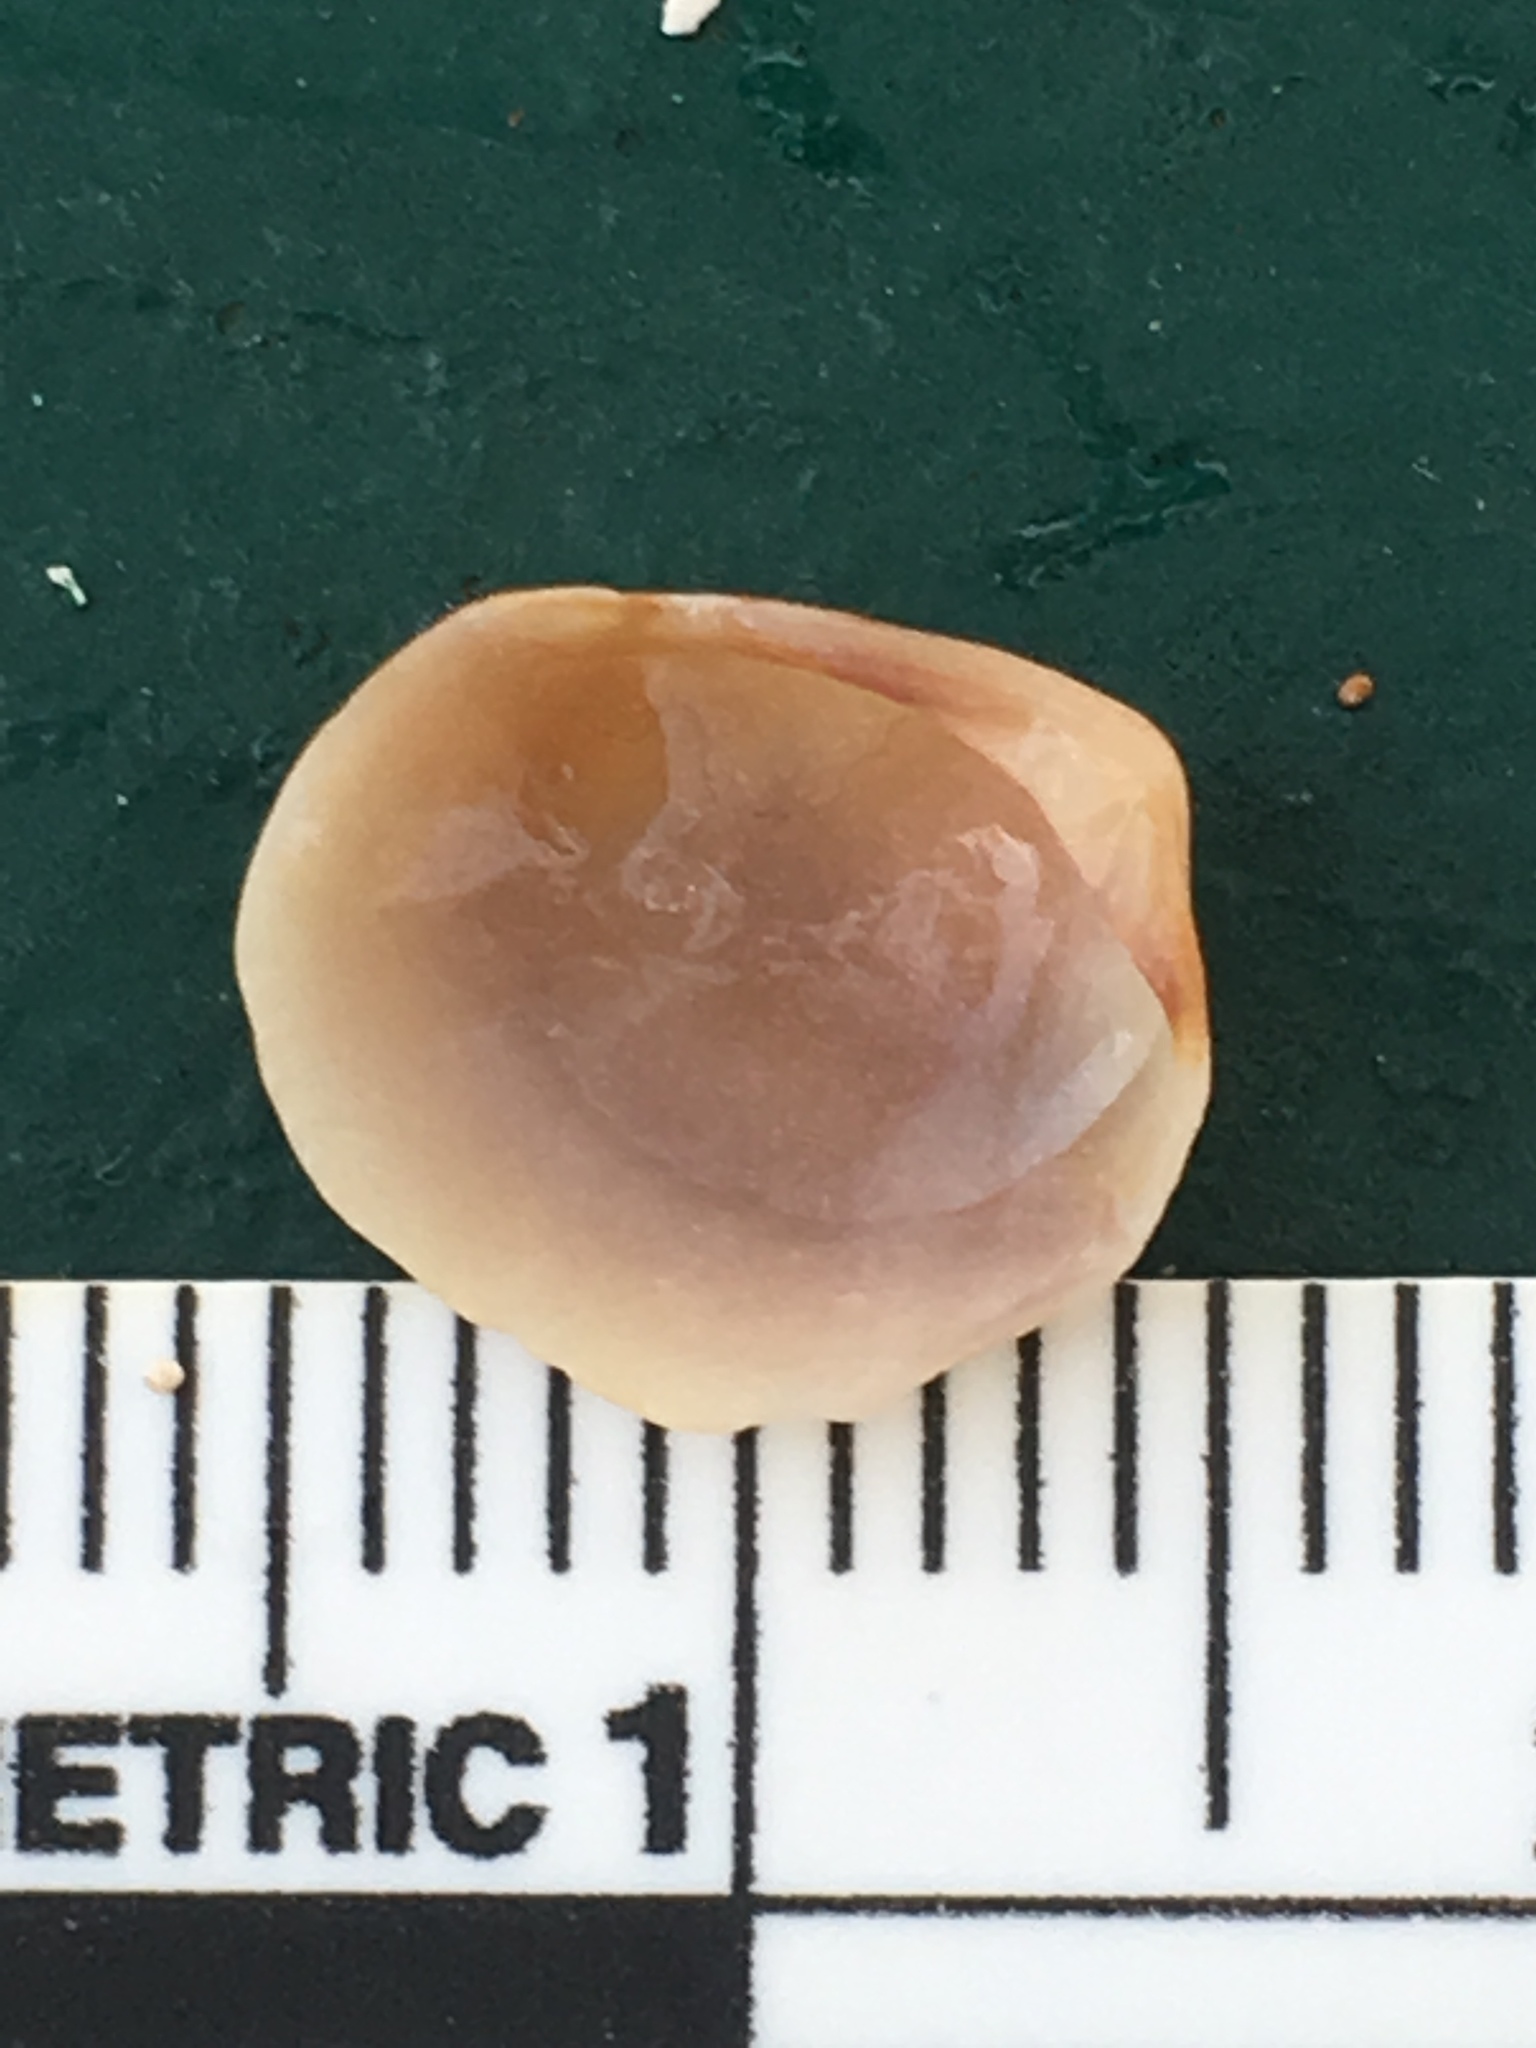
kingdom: Animalia
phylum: Mollusca
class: Bivalvia
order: Venerida
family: Veneridae
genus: Chioneryx
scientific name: Chioneryx grus
